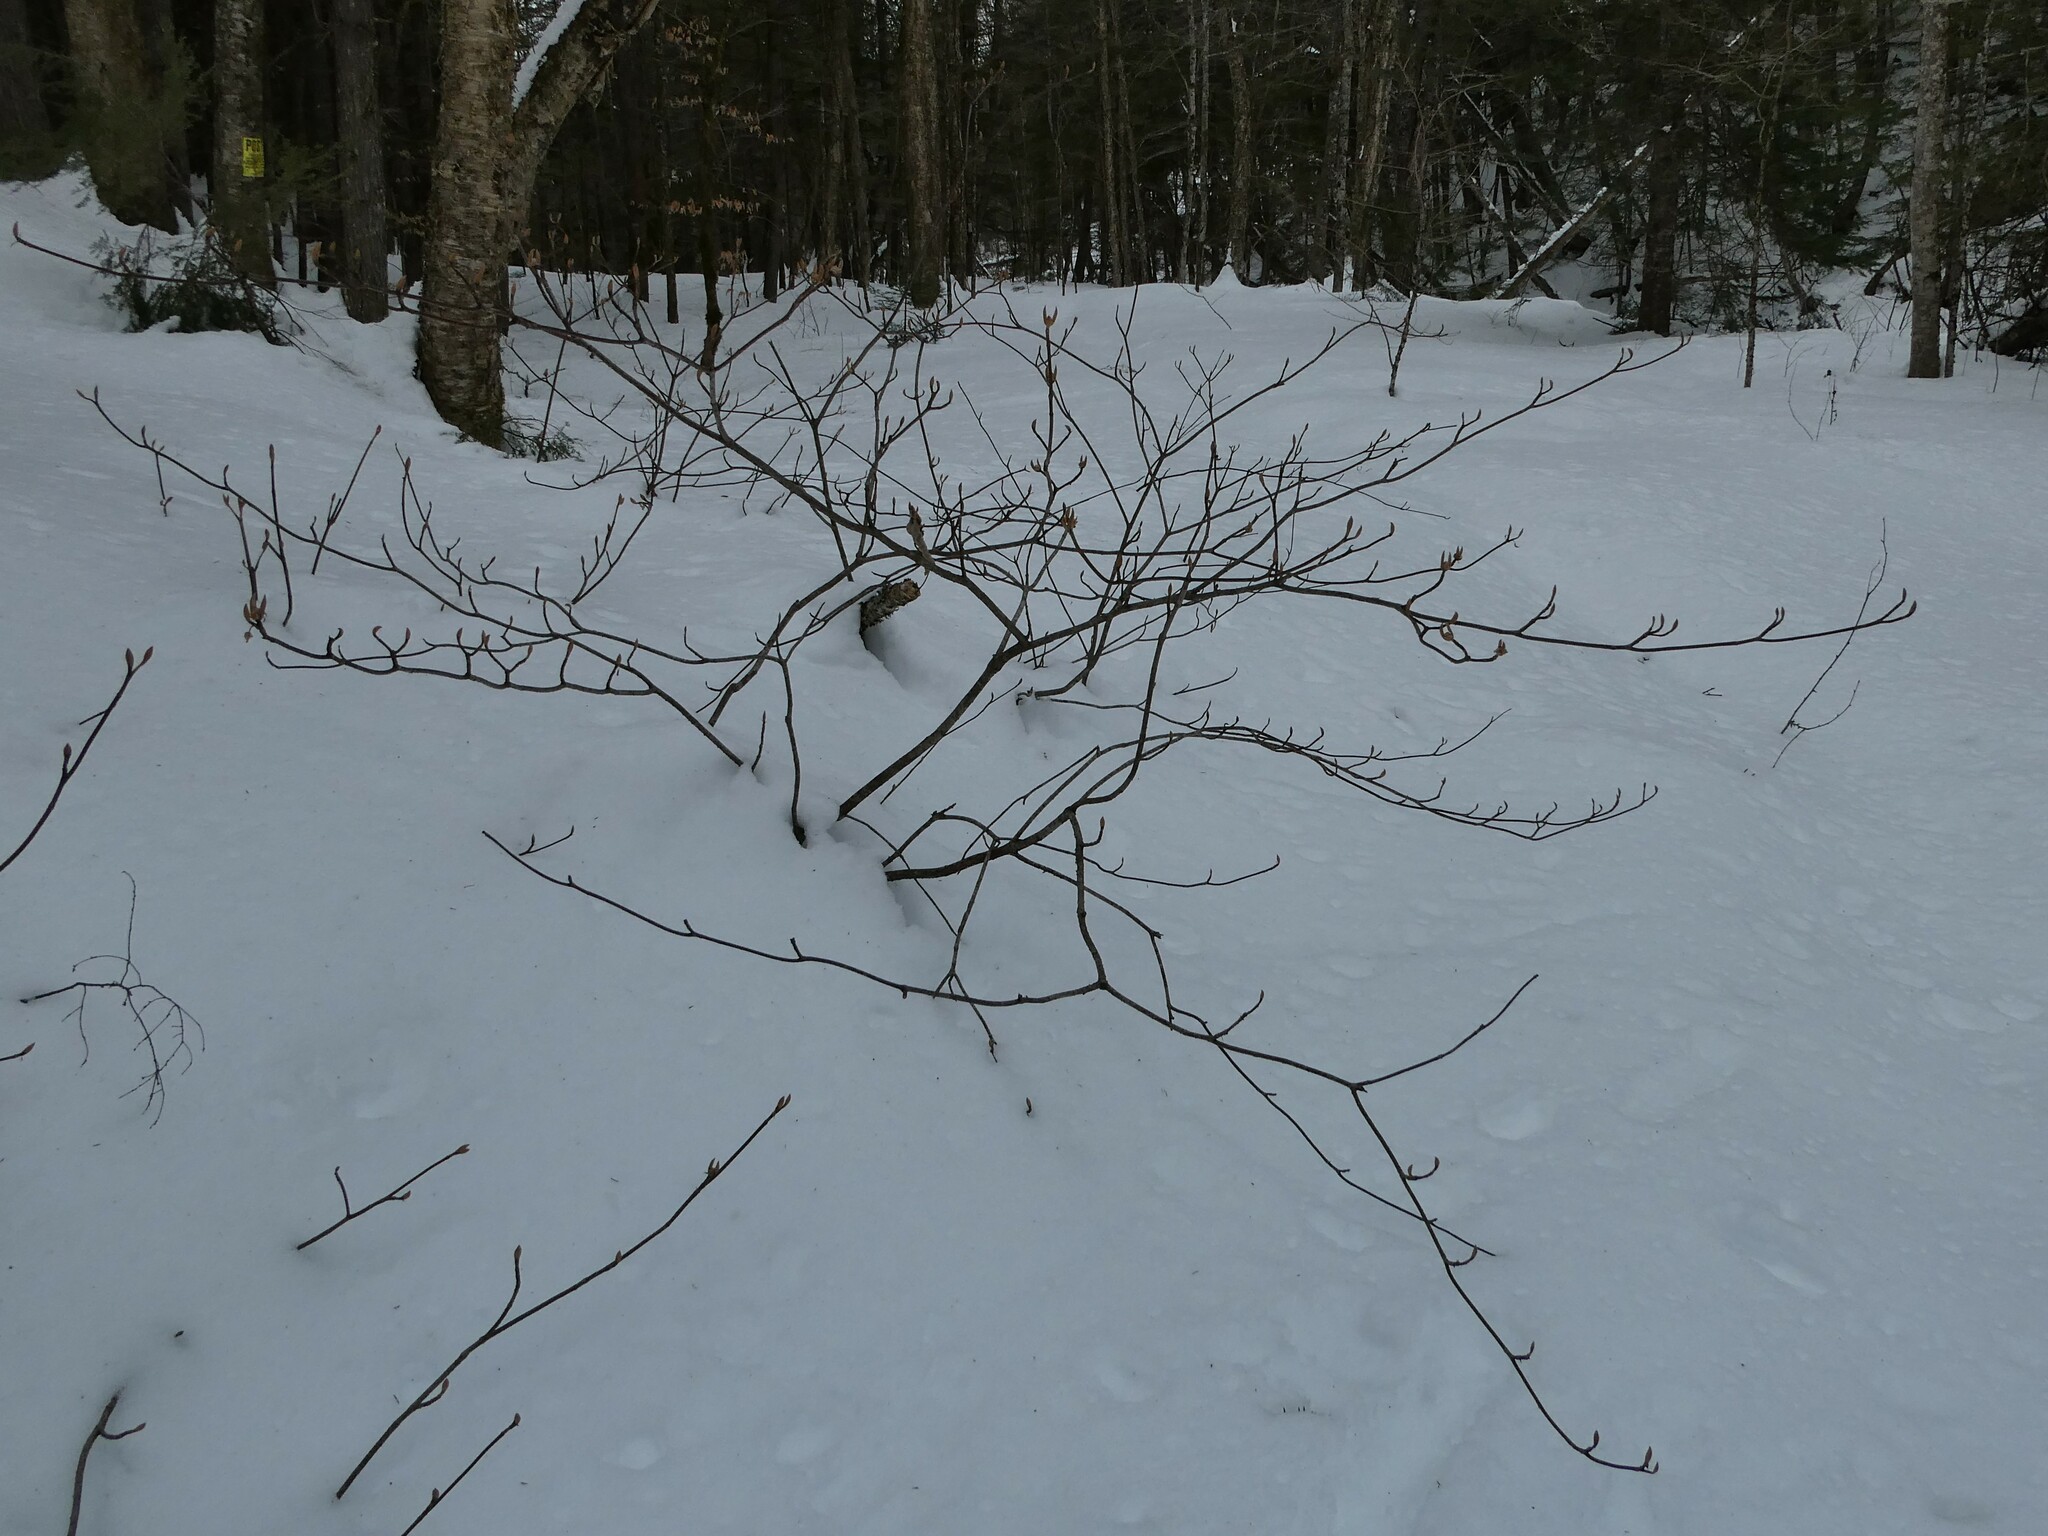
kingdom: Plantae
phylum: Tracheophyta
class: Magnoliopsida
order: Dipsacales
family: Viburnaceae
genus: Viburnum
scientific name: Viburnum lantanoides
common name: Hobblebush
